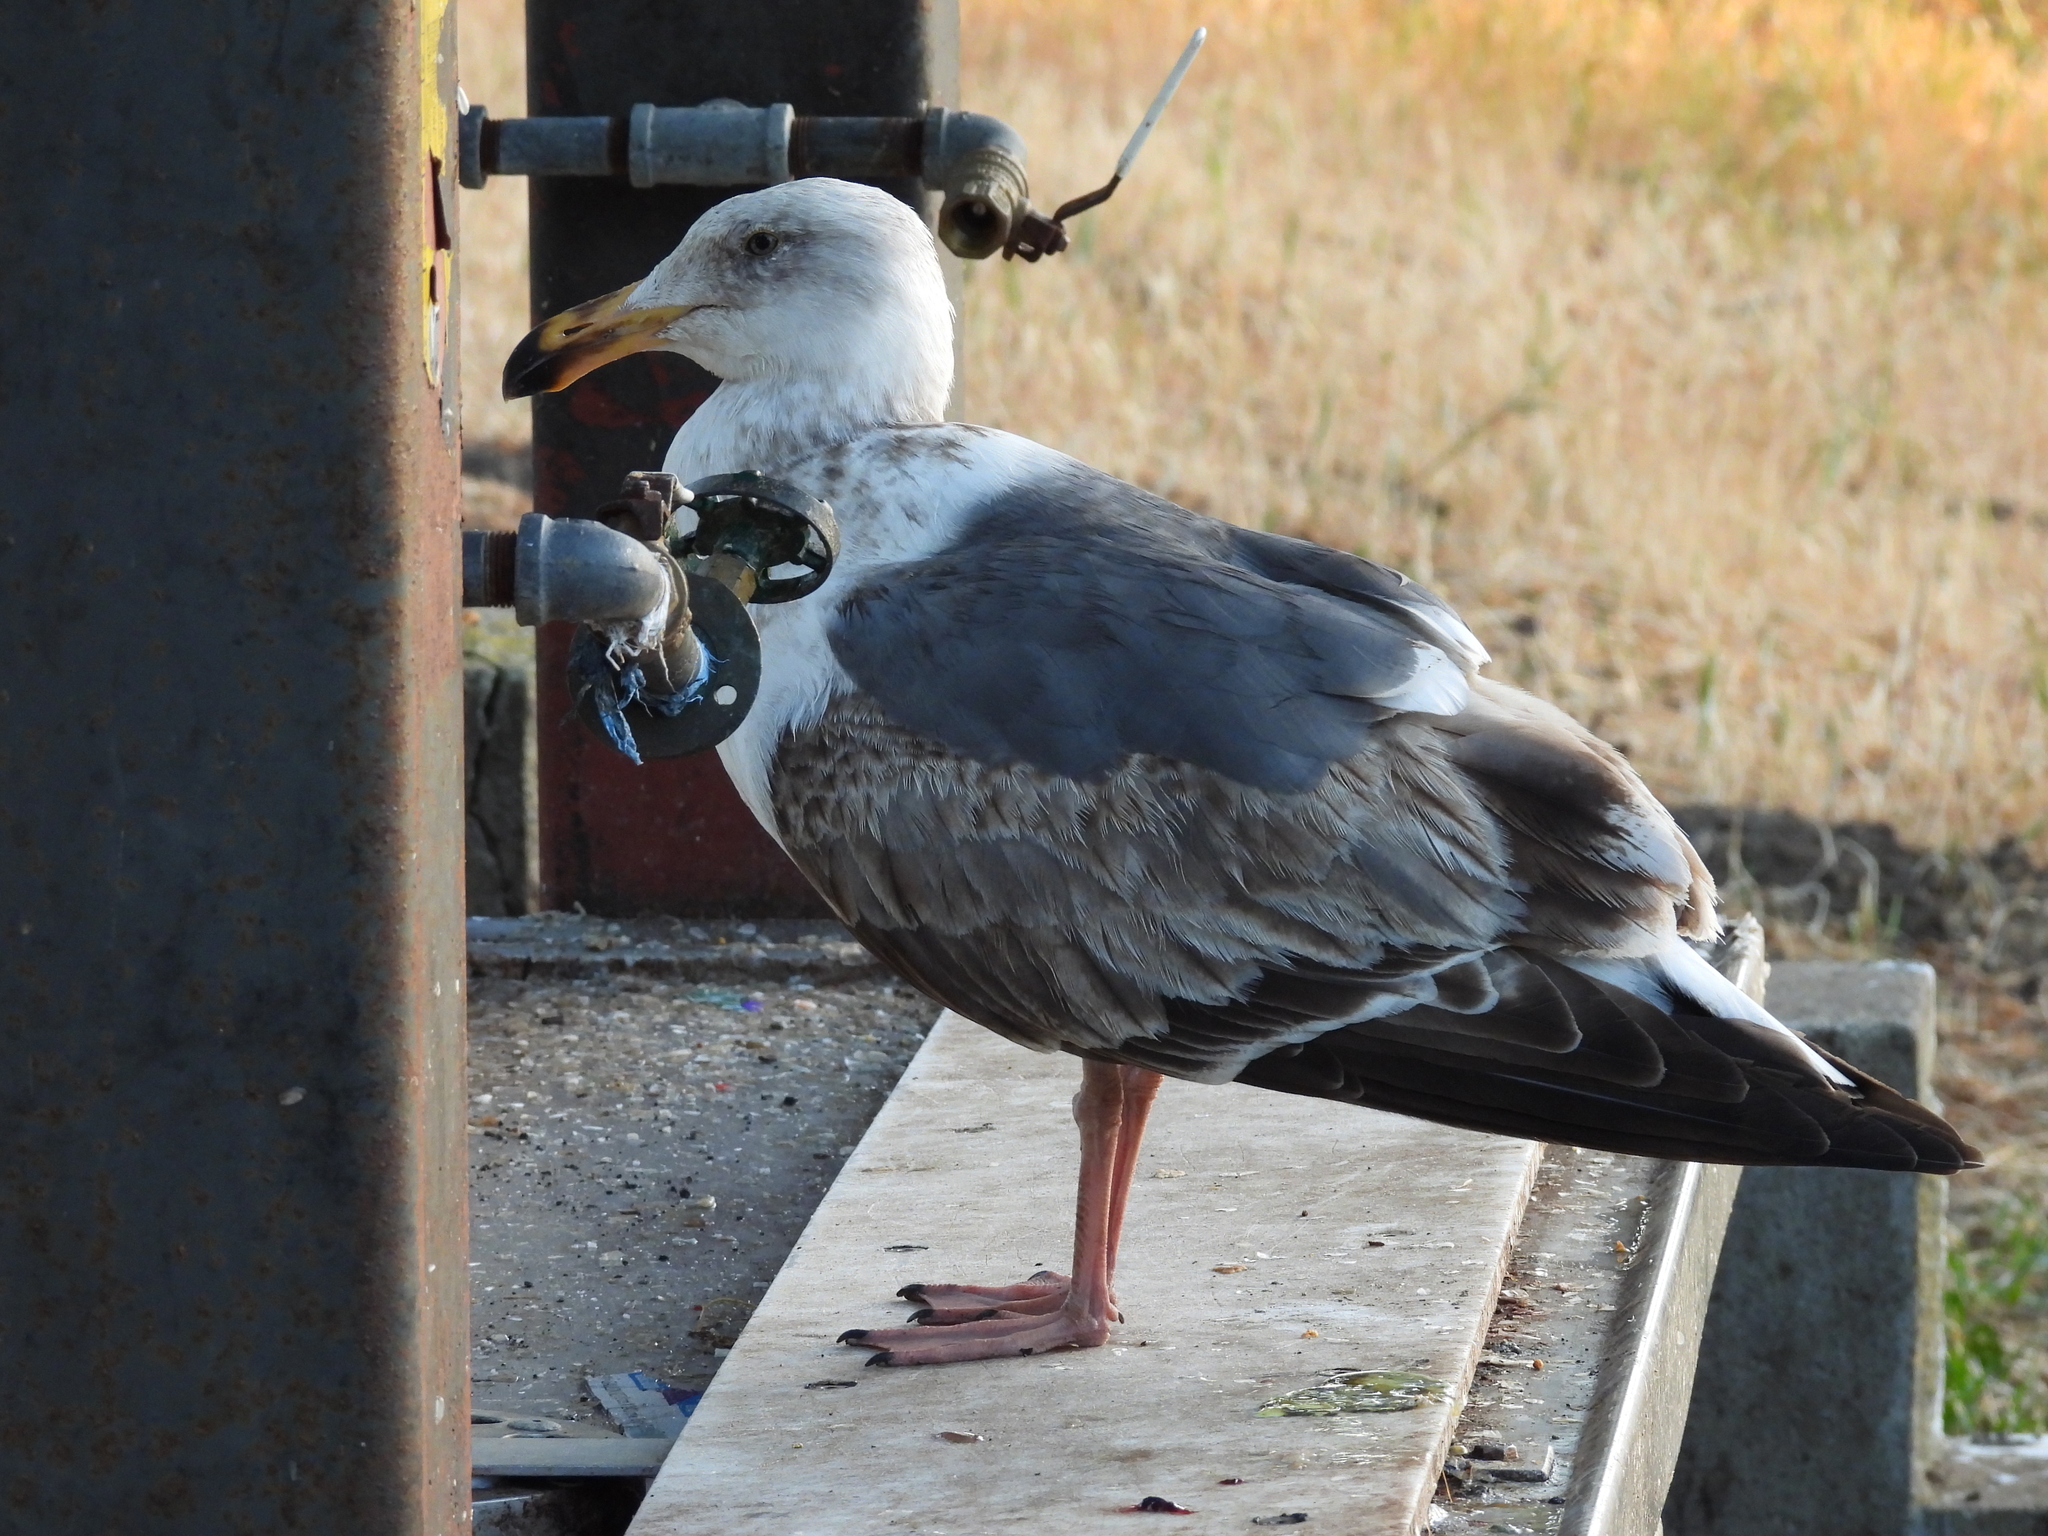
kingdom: Animalia
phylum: Chordata
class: Aves
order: Charadriiformes
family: Laridae
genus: Larus
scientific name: Larus occidentalis
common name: Western gull
